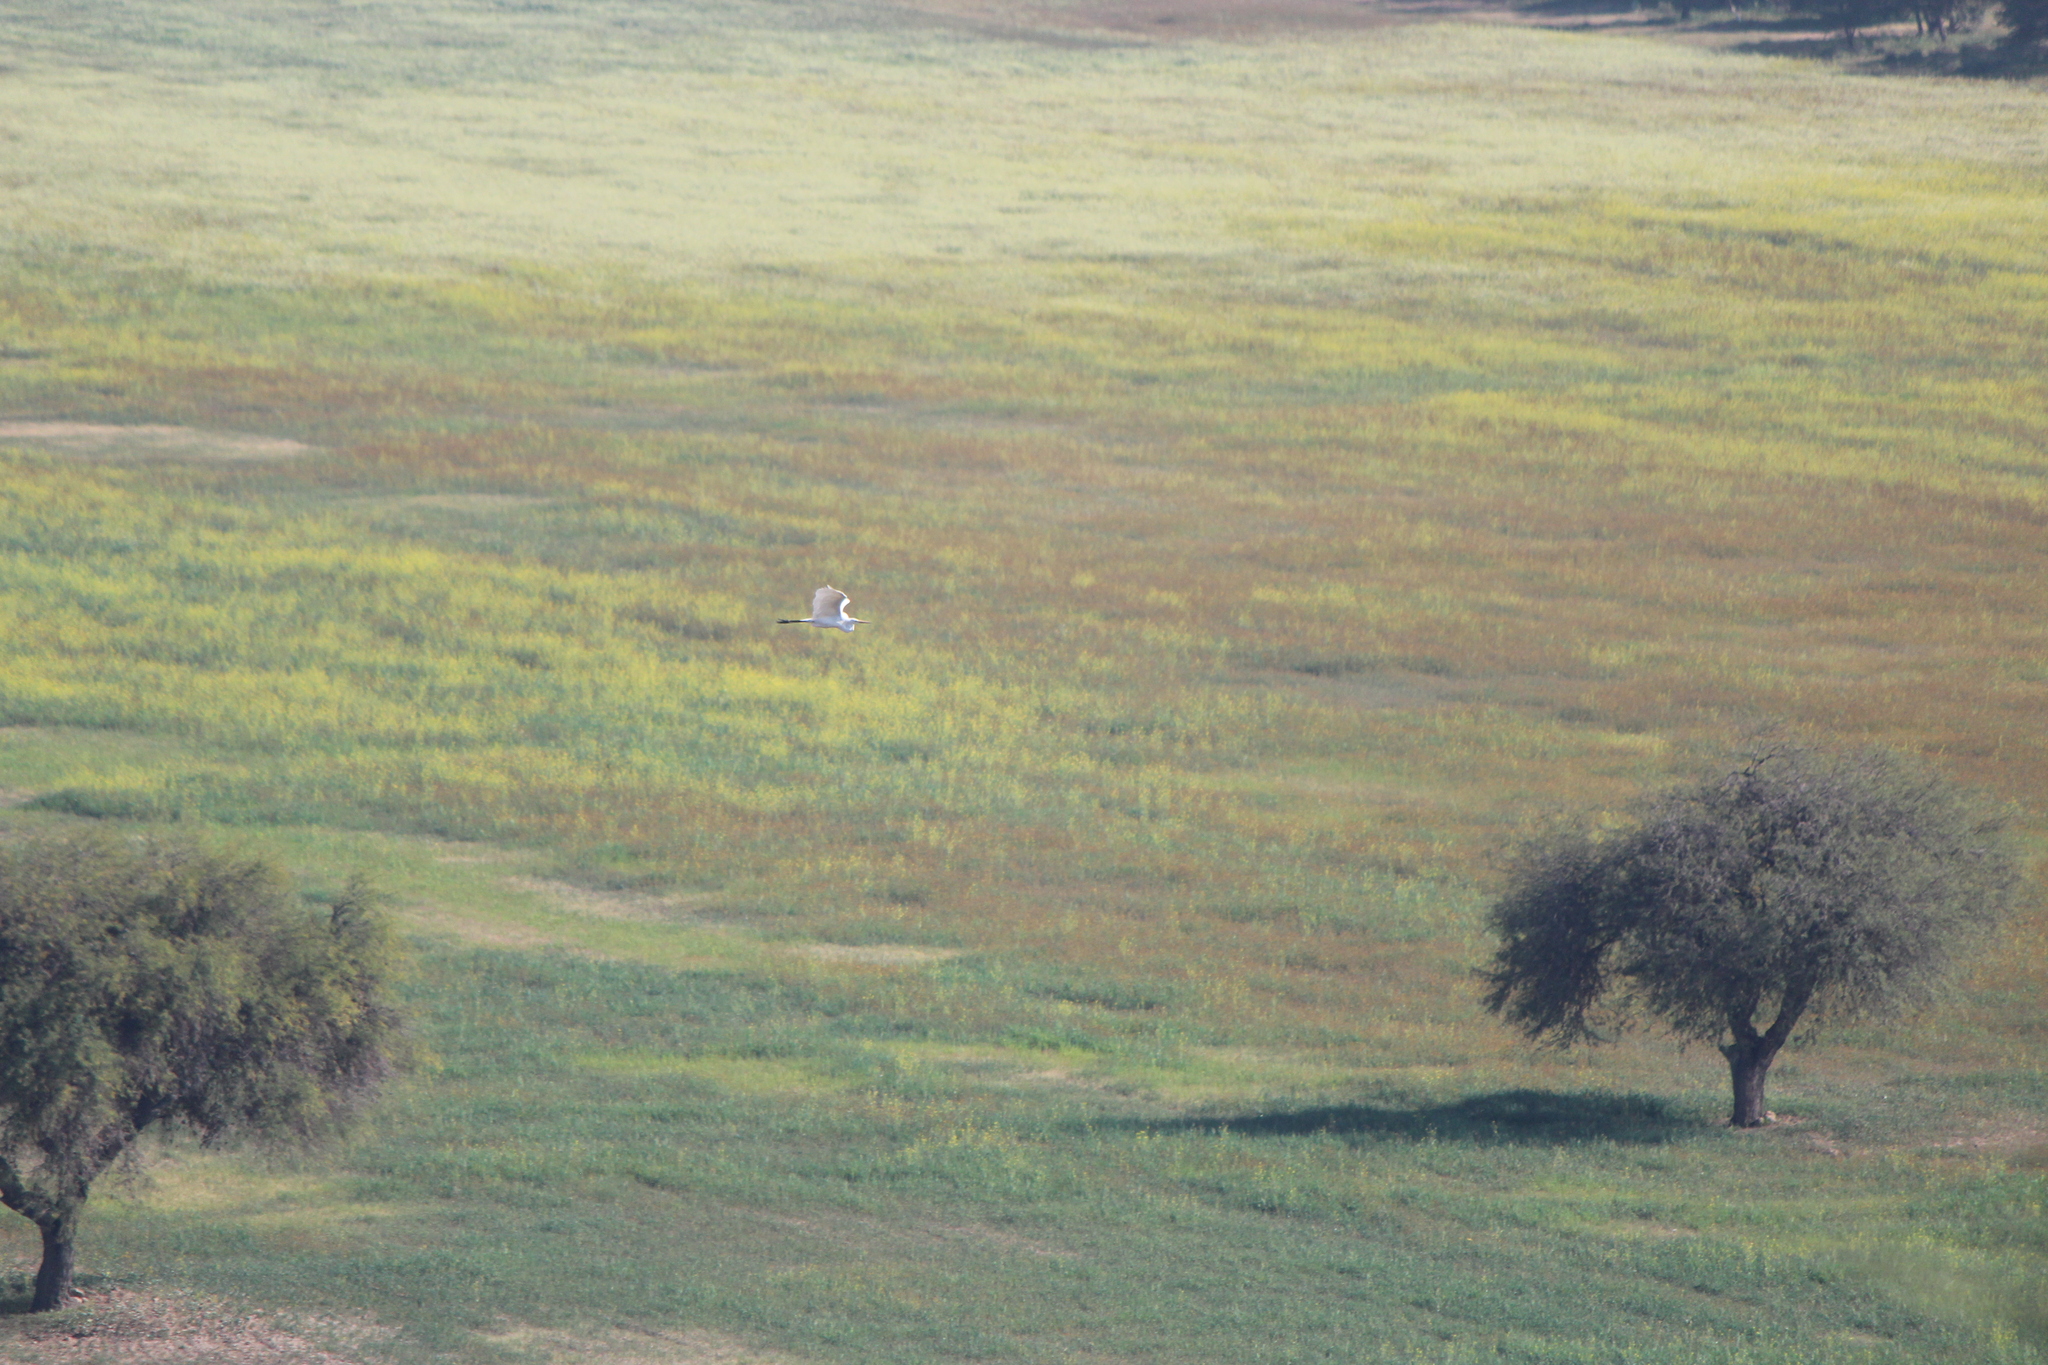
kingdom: Animalia
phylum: Chordata
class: Aves
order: Pelecaniformes
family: Ardeidae
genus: Ardea
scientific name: Ardea alba
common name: Great egret
